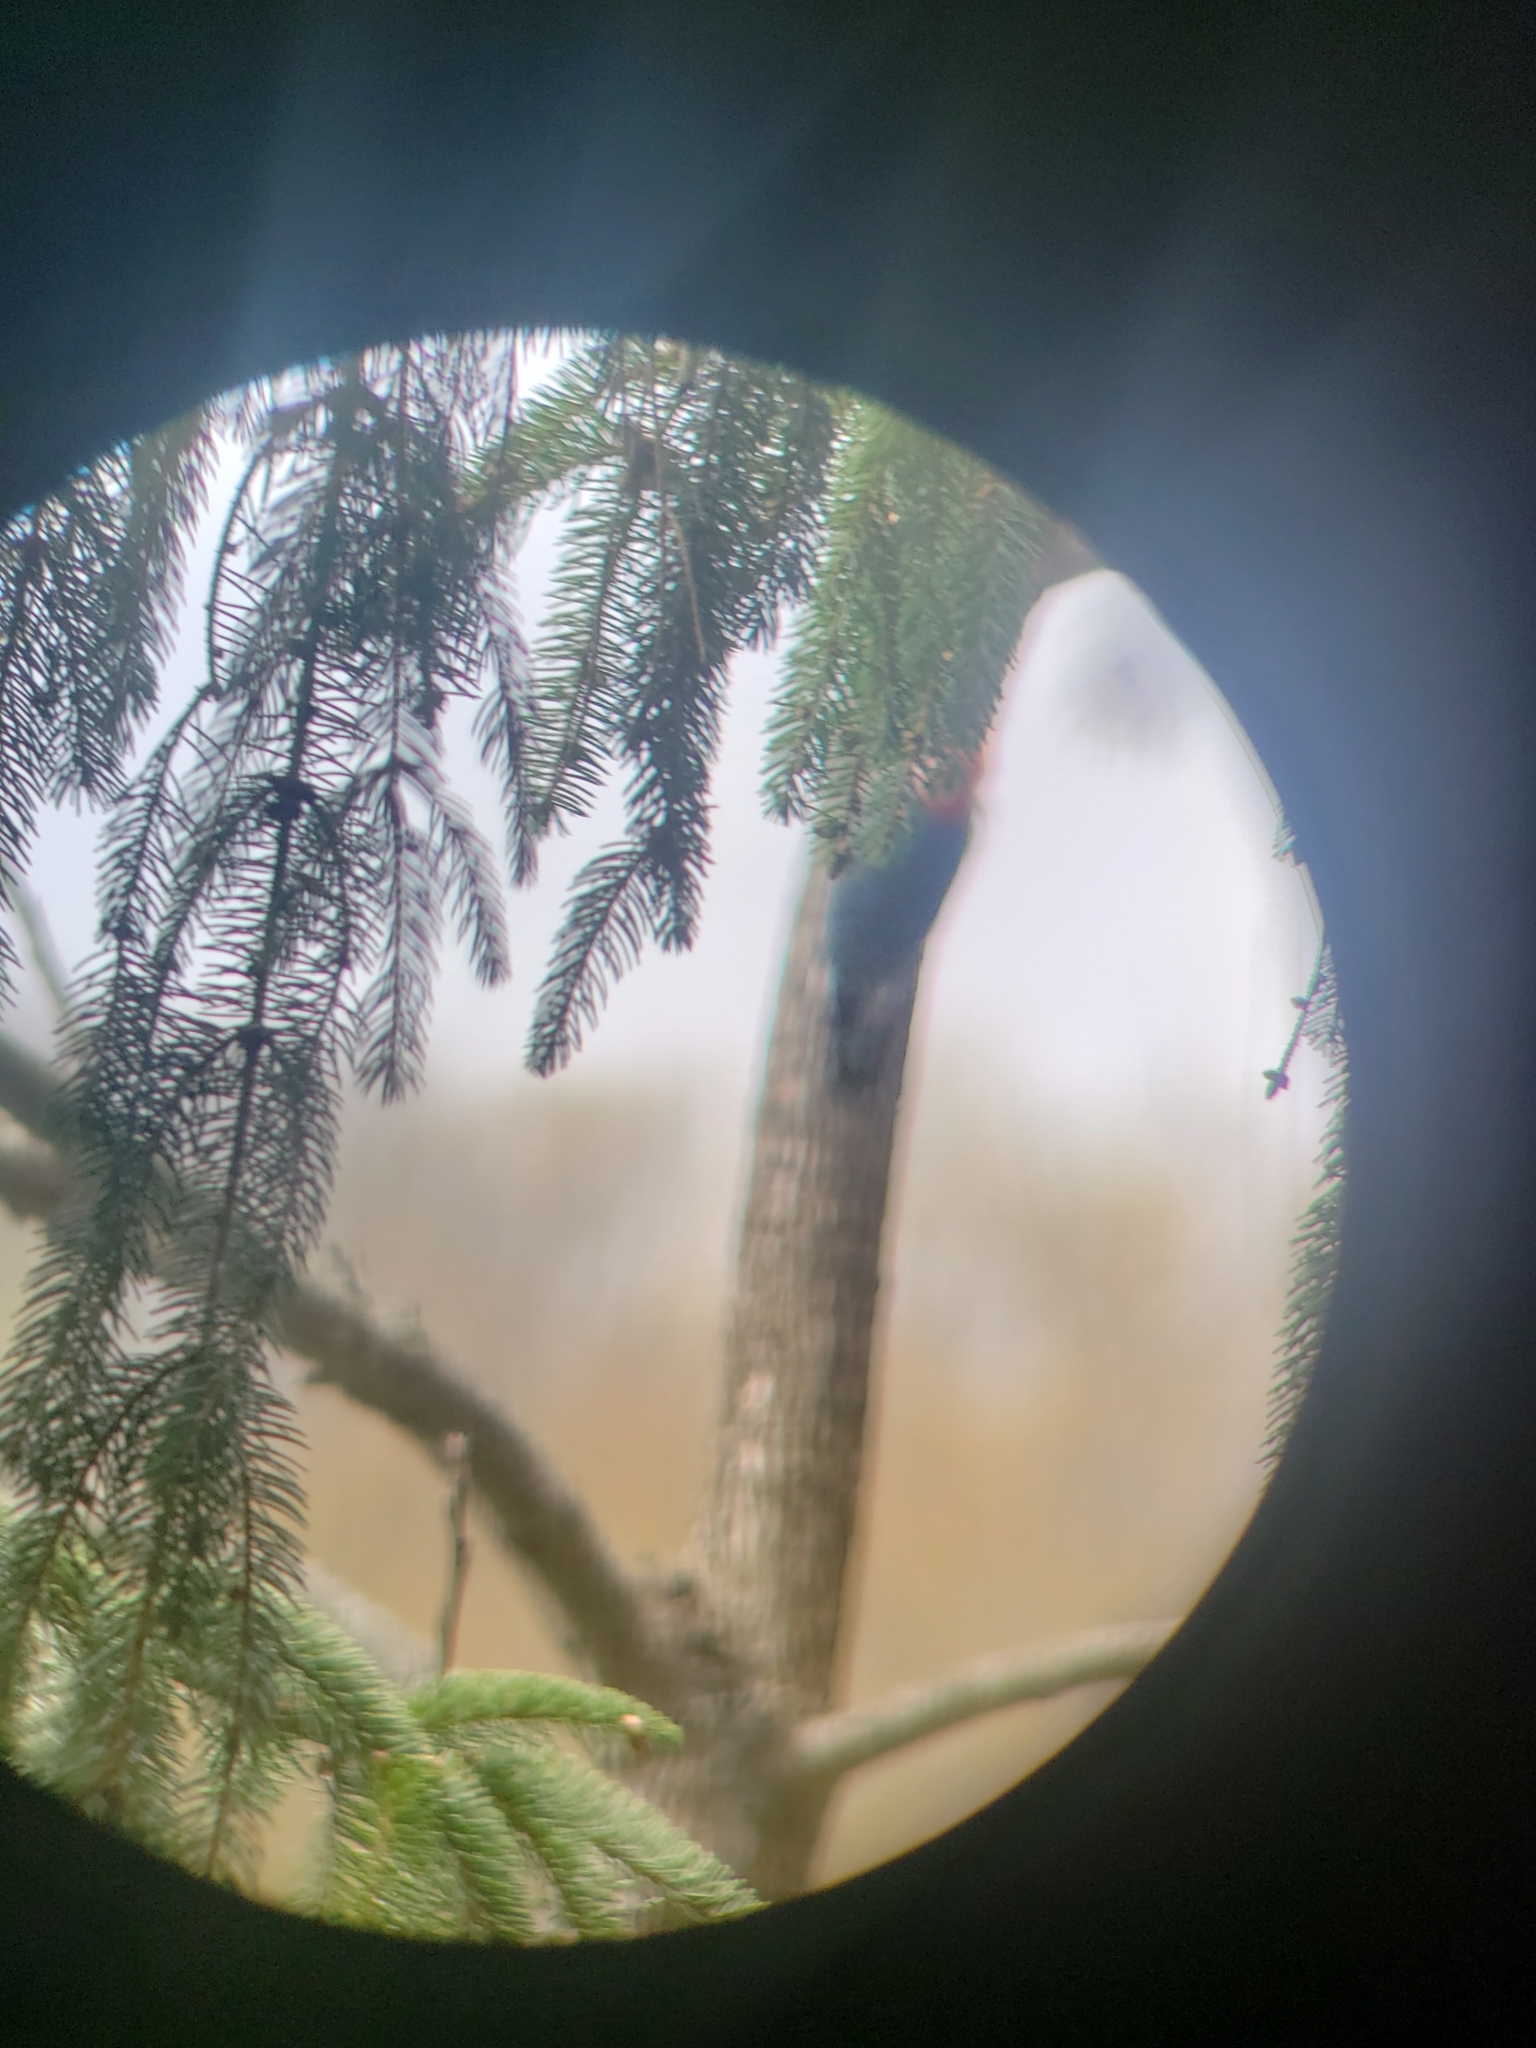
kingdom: Animalia
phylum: Chordata
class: Aves
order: Piciformes
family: Picidae
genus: Melanerpes
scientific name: Melanerpes carolinus
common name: Red-bellied woodpecker
